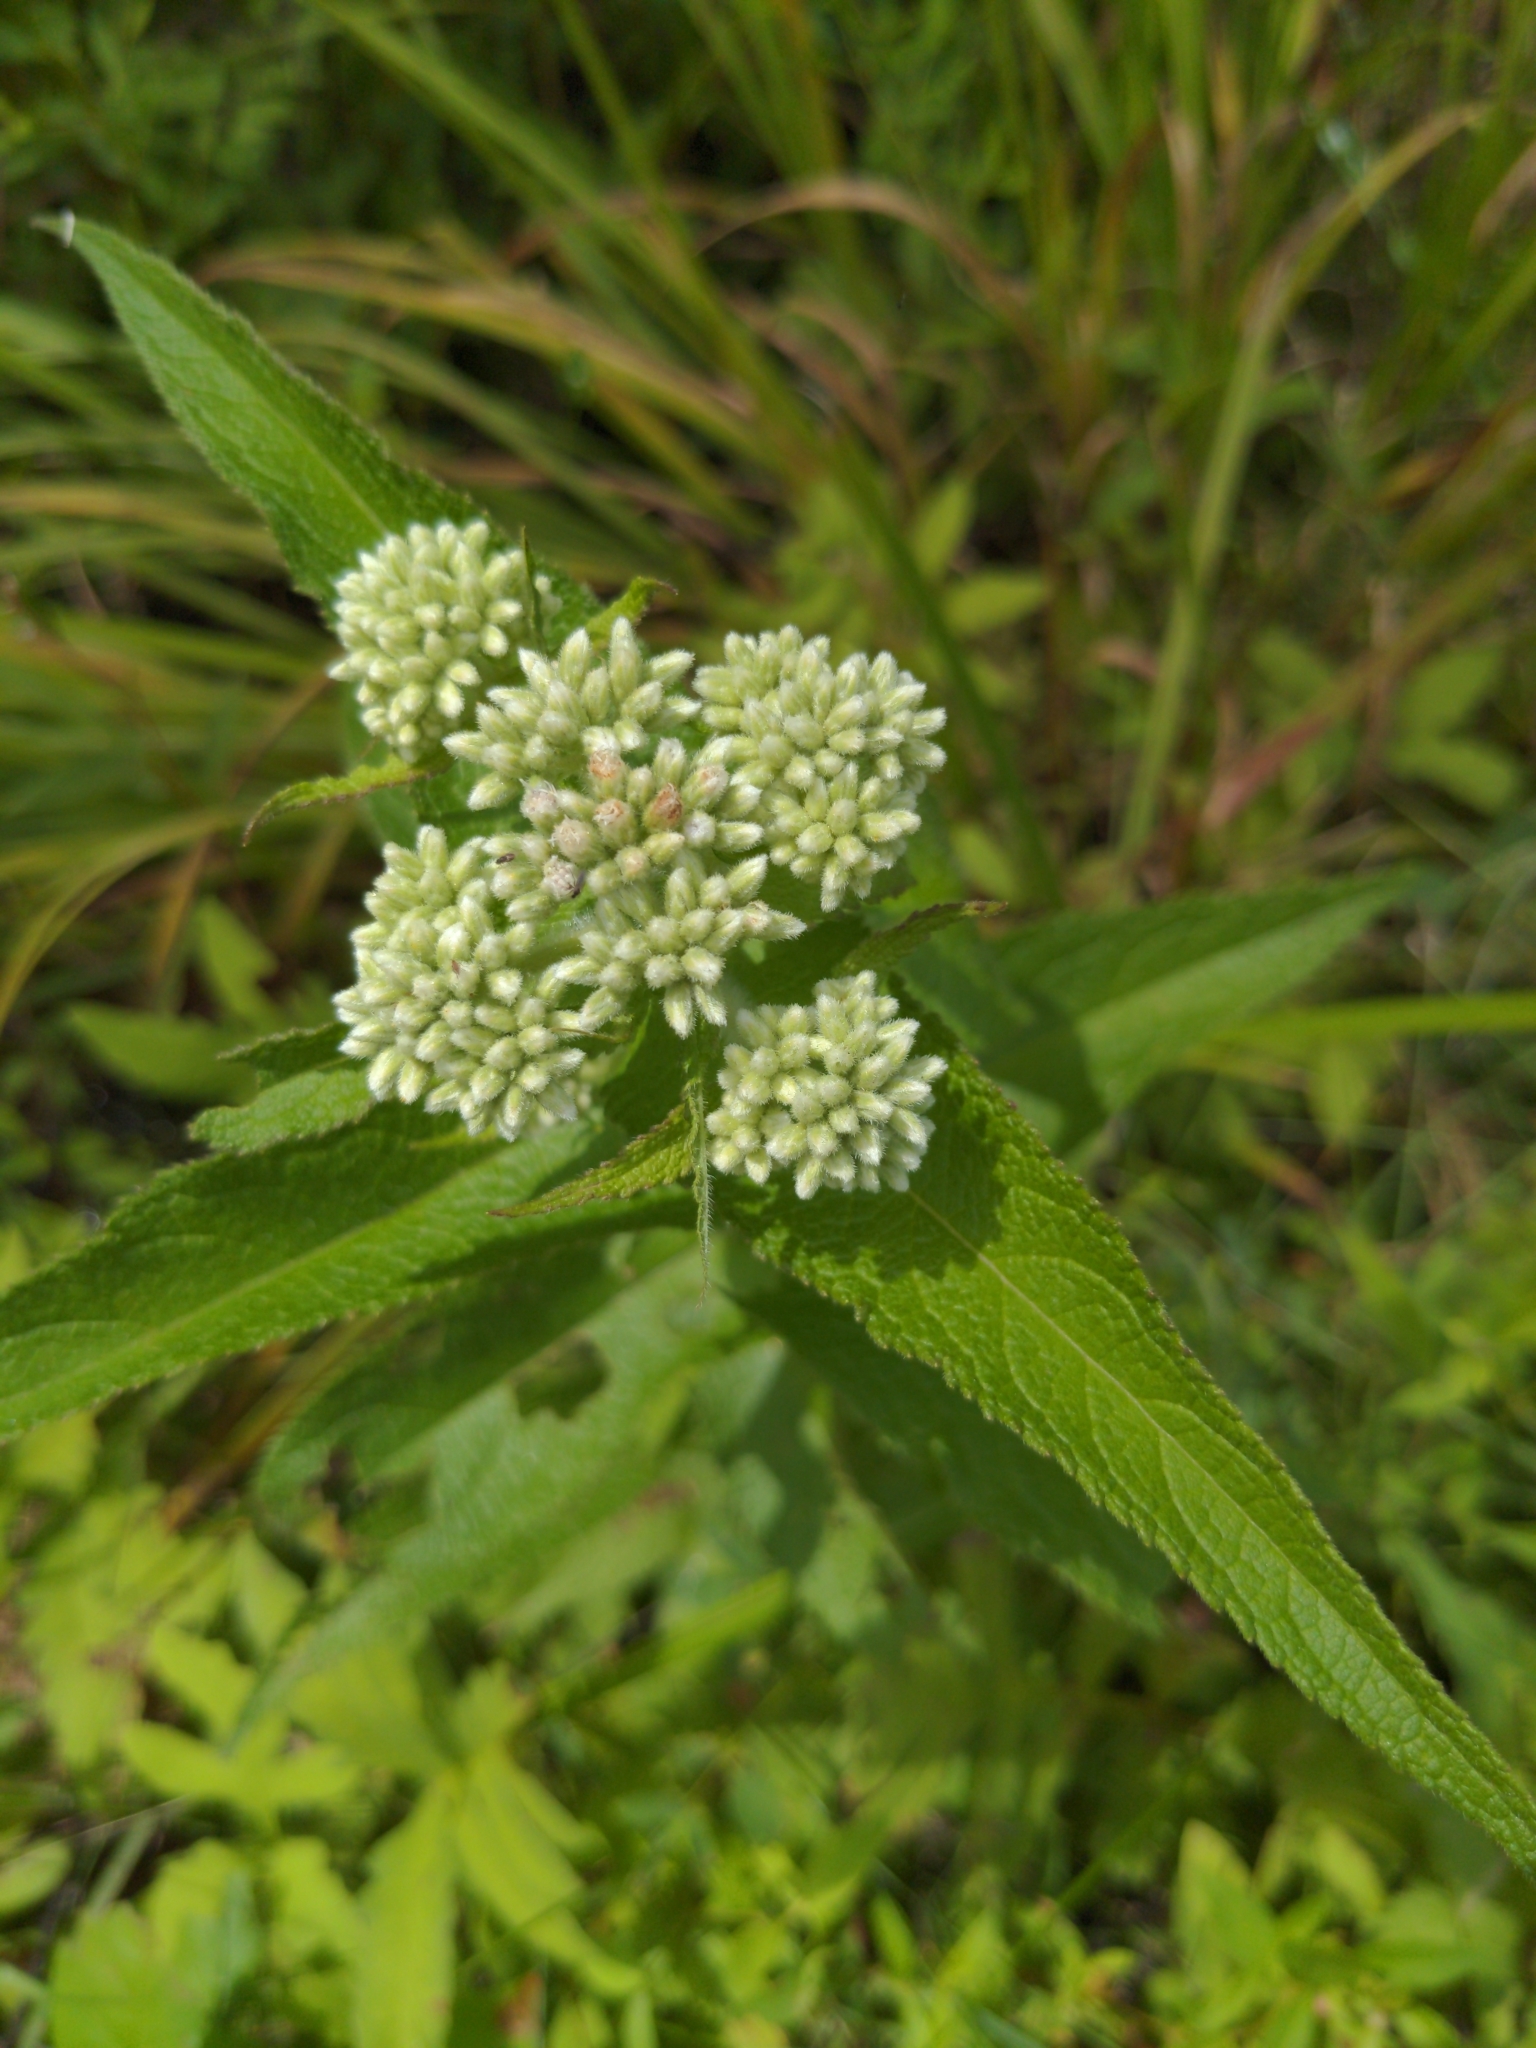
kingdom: Plantae
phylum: Tracheophyta
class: Magnoliopsida
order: Asterales
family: Asteraceae
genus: Eupatorium
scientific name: Eupatorium perfoliatum
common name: Boneset
